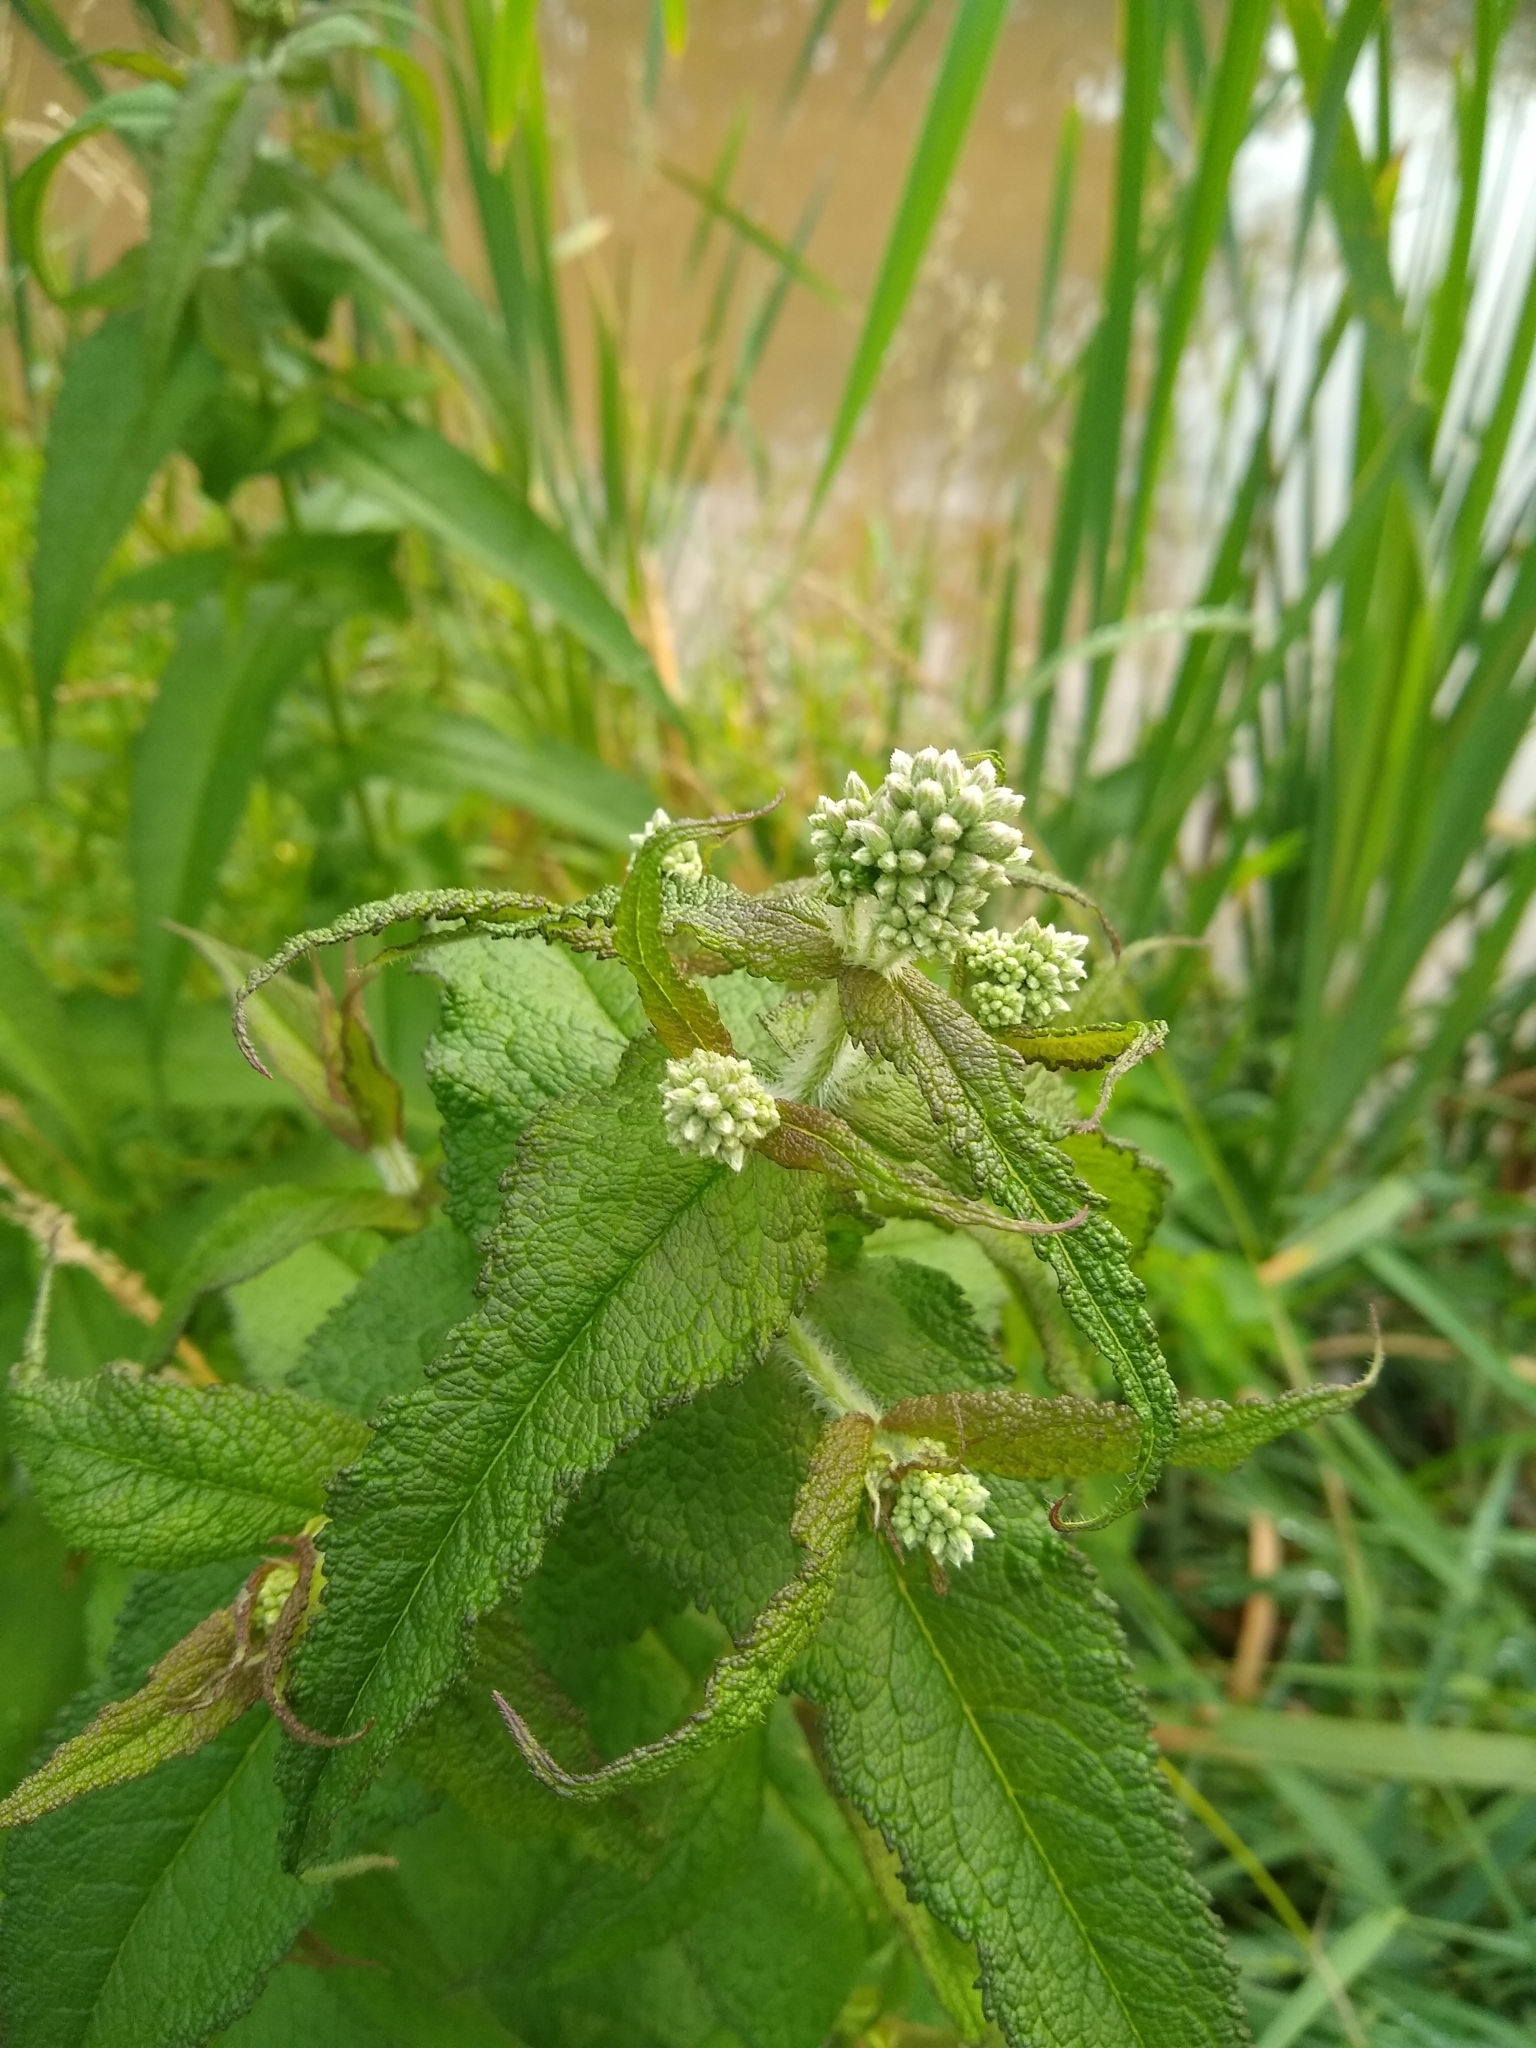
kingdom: Plantae
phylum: Tracheophyta
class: Magnoliopsida
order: Asterales
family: Asteraceae
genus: Eupatorium
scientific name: Eupatorium perfoliatum
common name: Boneset
